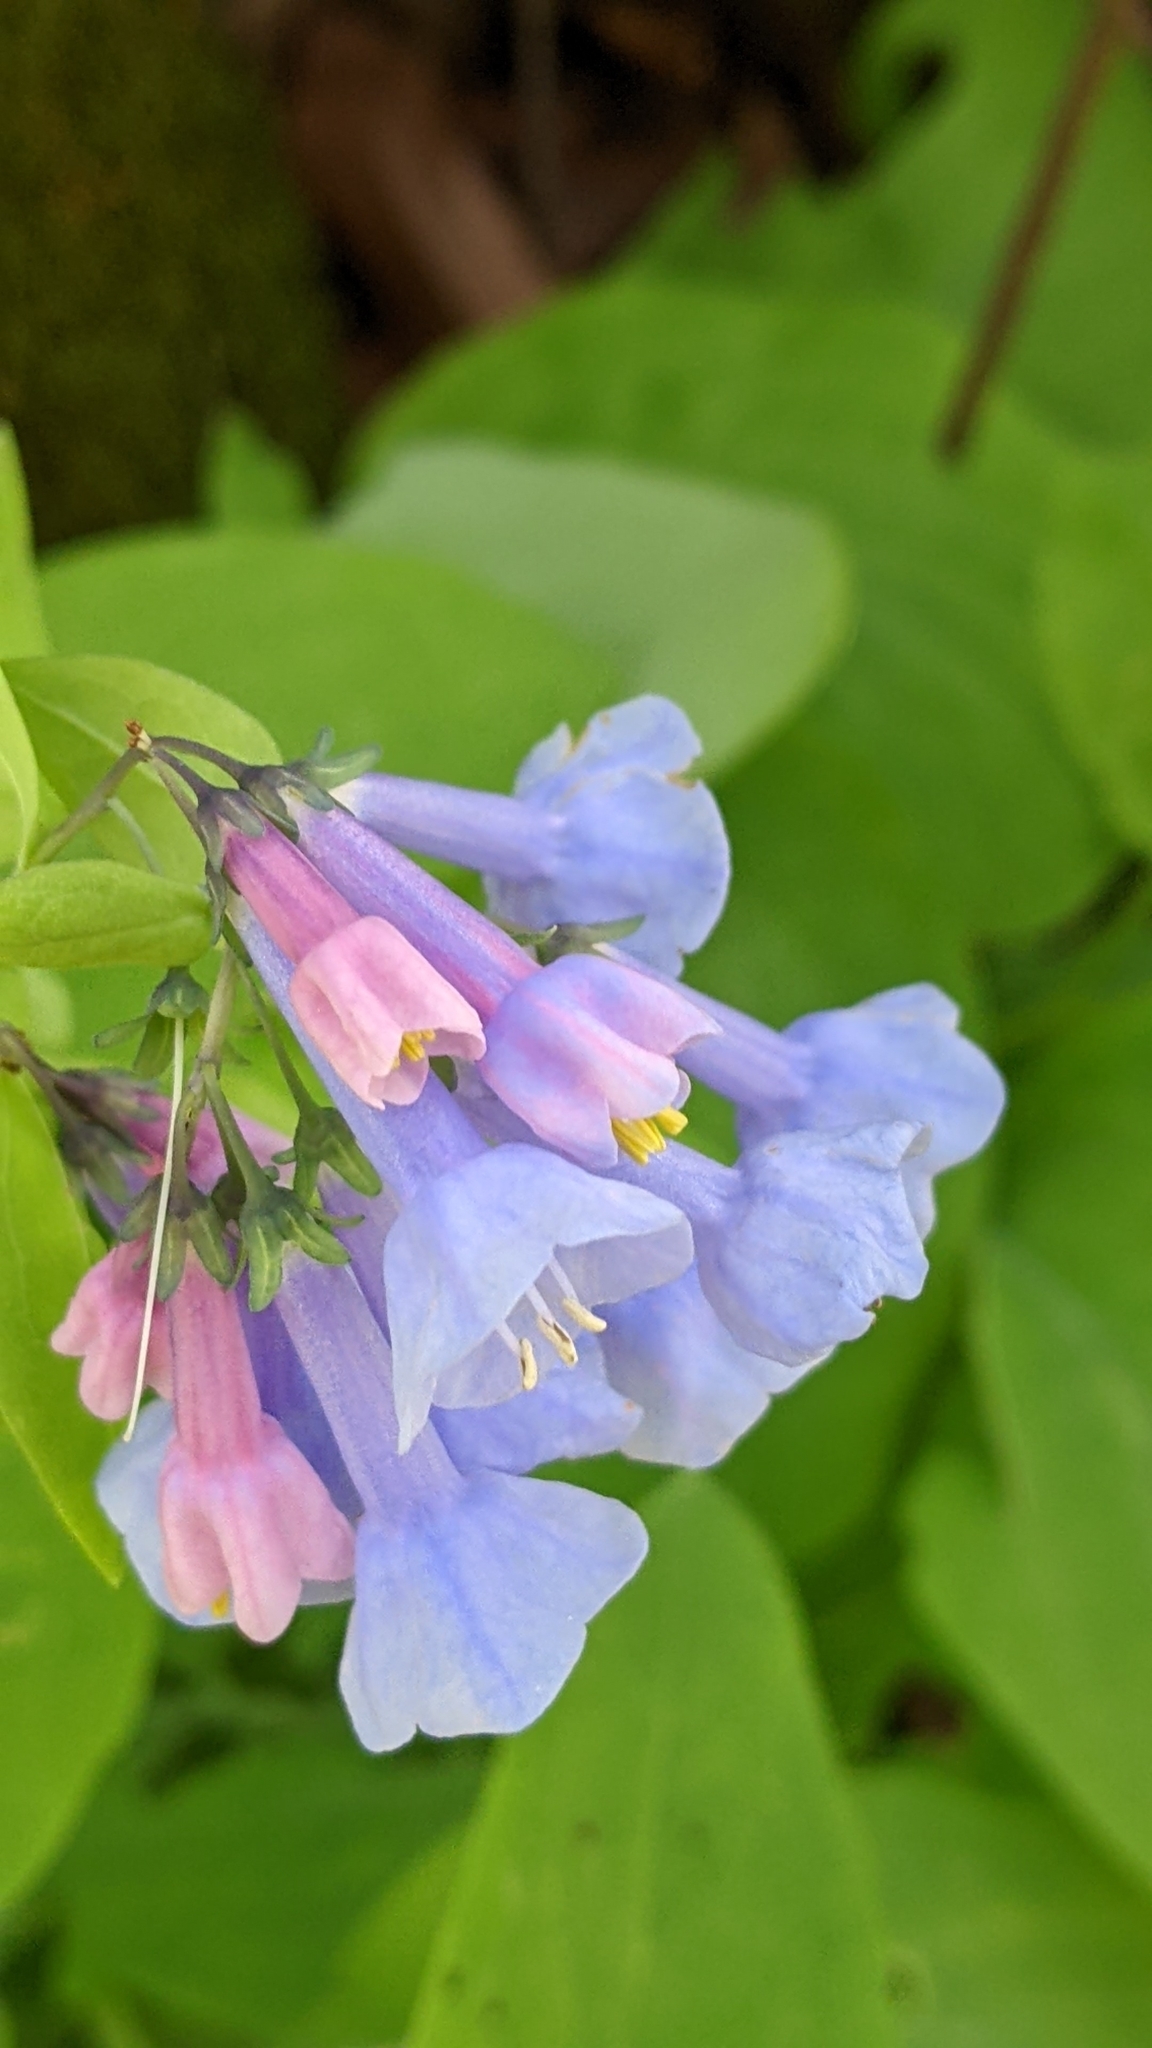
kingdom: Plantae
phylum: Tracheophyta
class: Magnoliopsida
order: Boraginales
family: Boraginaceae
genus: Mertensia
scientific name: Mertensia virginica
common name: Virginia bluebells
